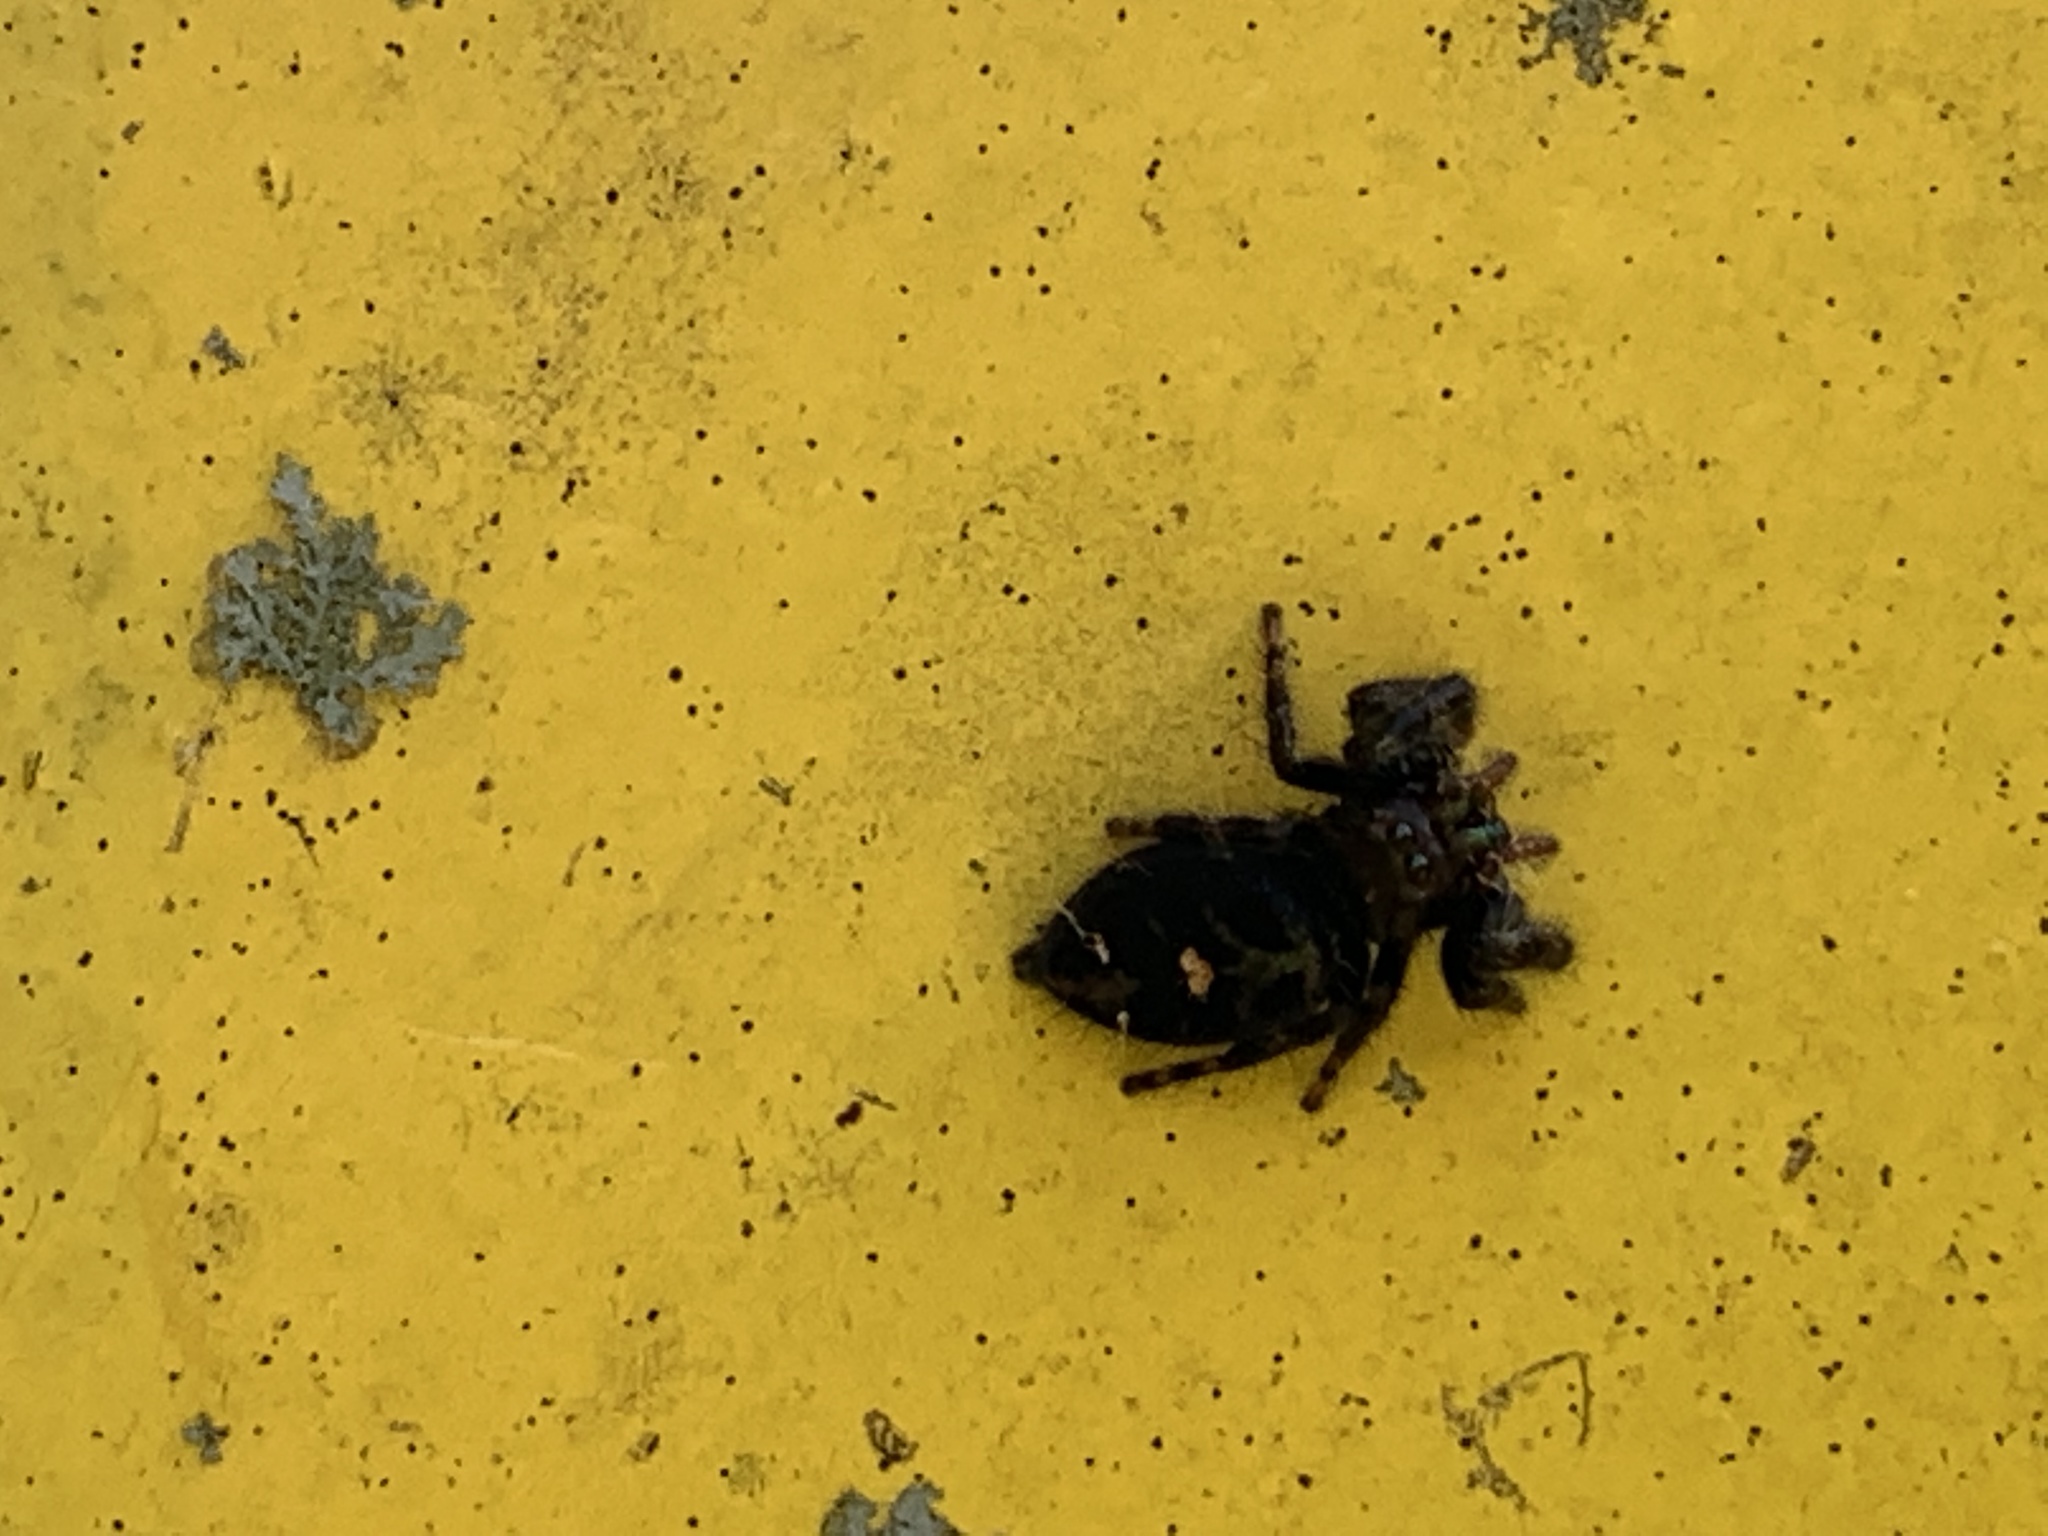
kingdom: Animalia
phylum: Arthropoda
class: Arachnida
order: Araneae
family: Salticidae
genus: Phidippus
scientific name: Phidippus audax
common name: Bold jumper
